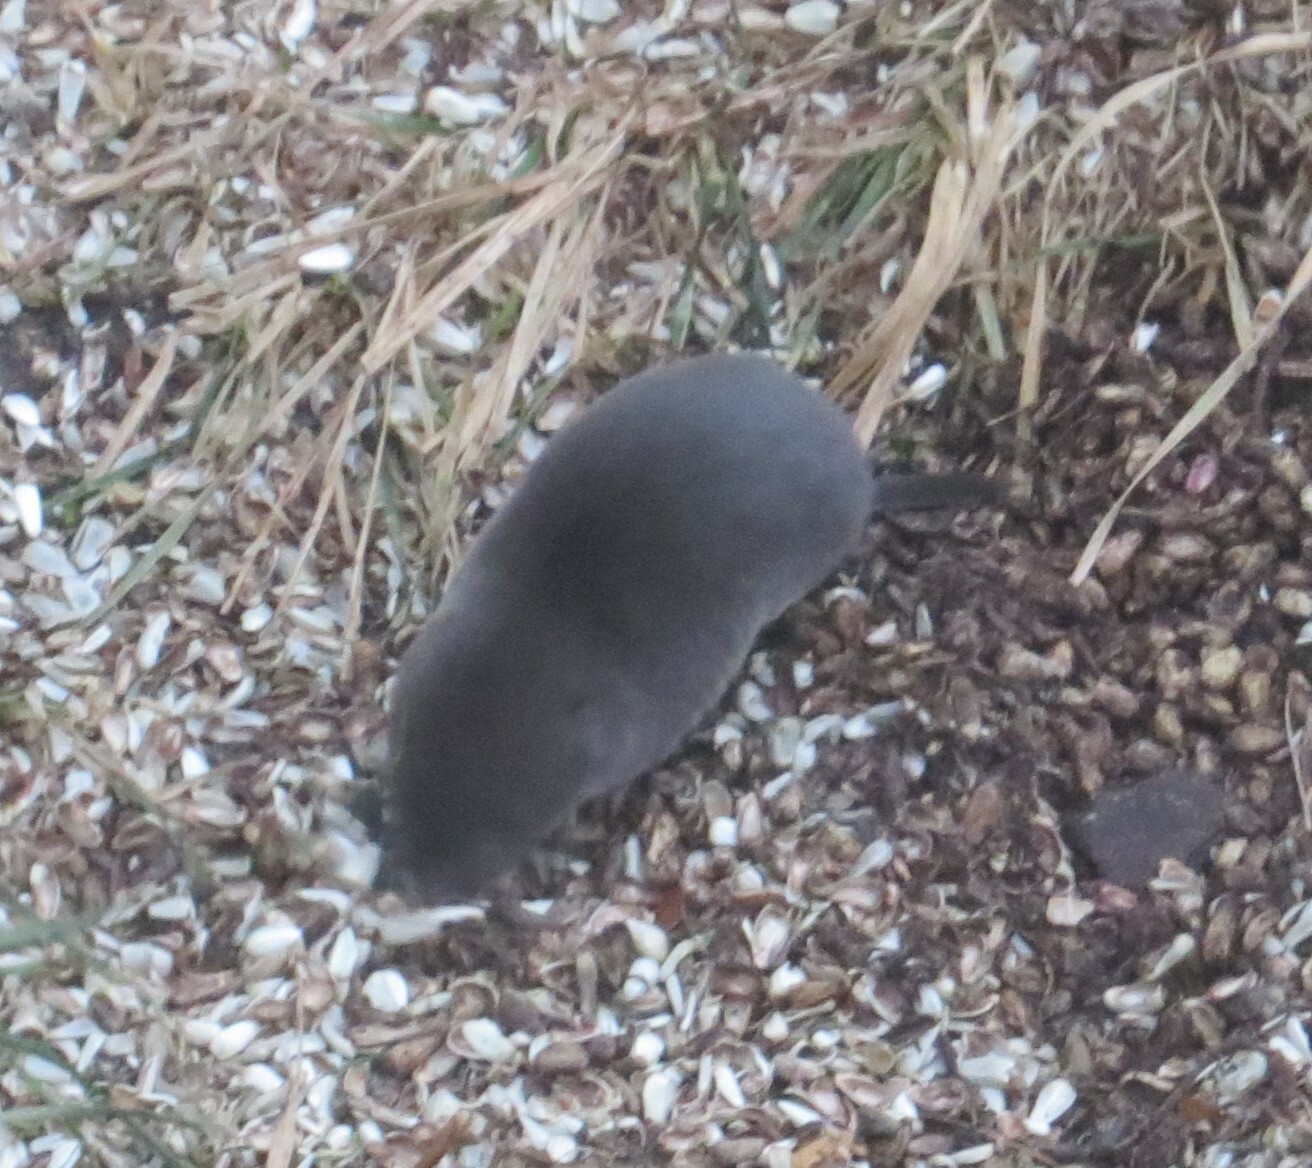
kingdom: Animalia
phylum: Chordata
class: Mammalia
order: Soricomorpha
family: Soricidae
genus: Blarina
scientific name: Blarina brevicauda
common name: Northern short-tailed shrew
